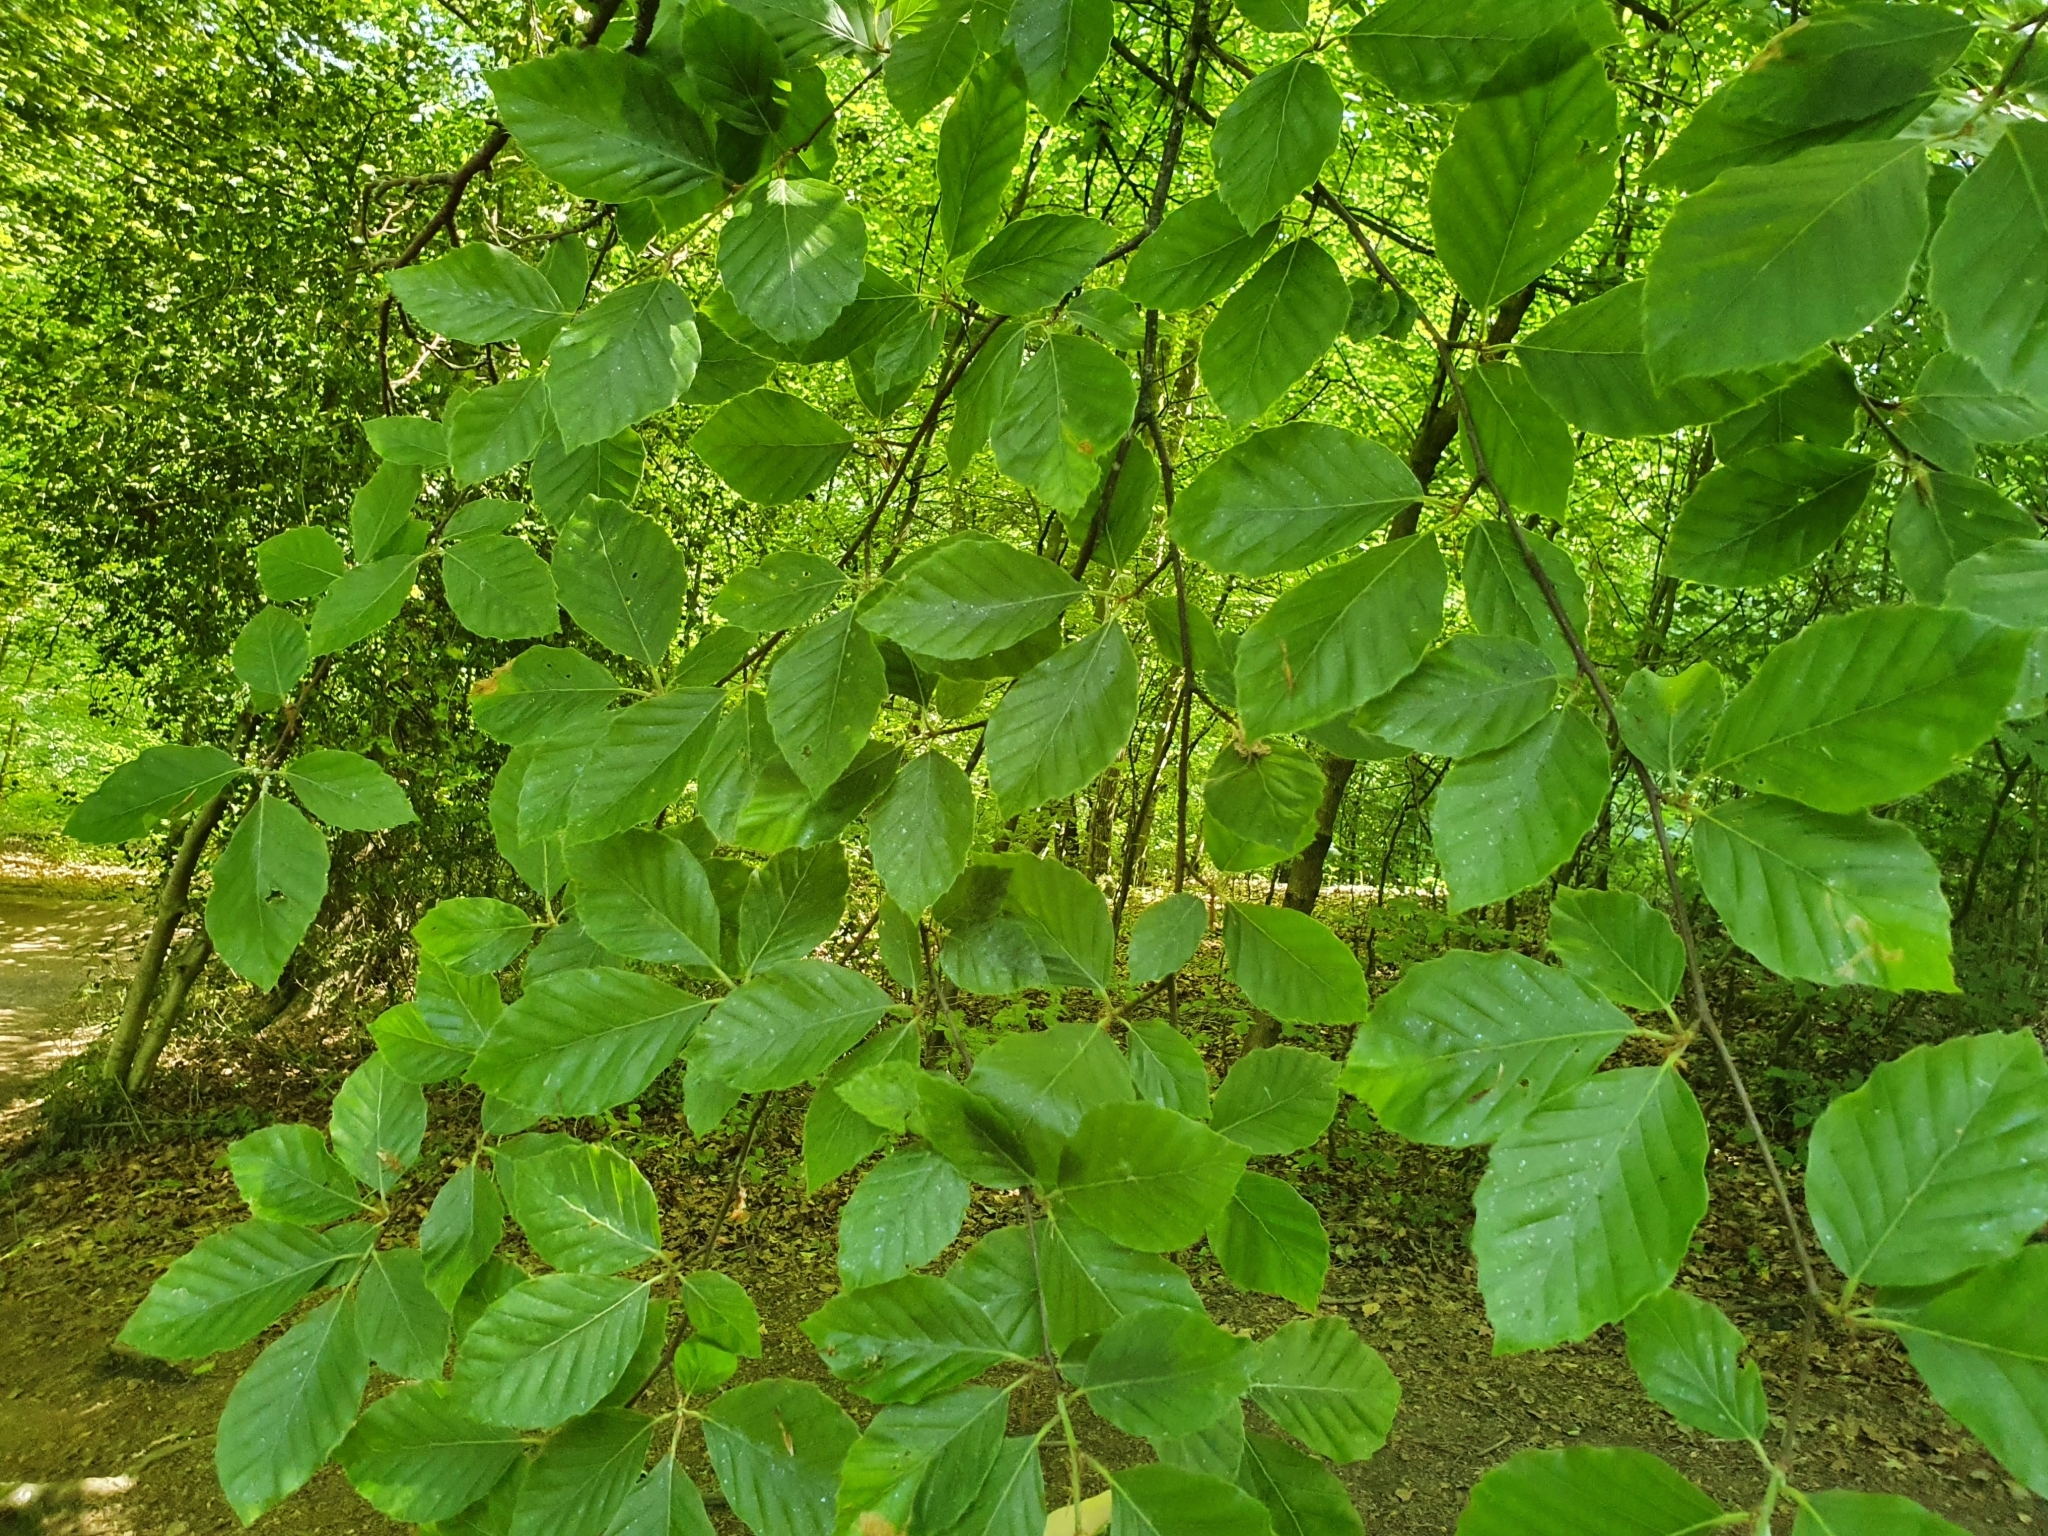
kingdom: Plantae
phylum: Tracheophyta
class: Magnoliopsida
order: Fagales
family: Fagaceae
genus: Fagus
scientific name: Fagus sylvatica
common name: Beech
